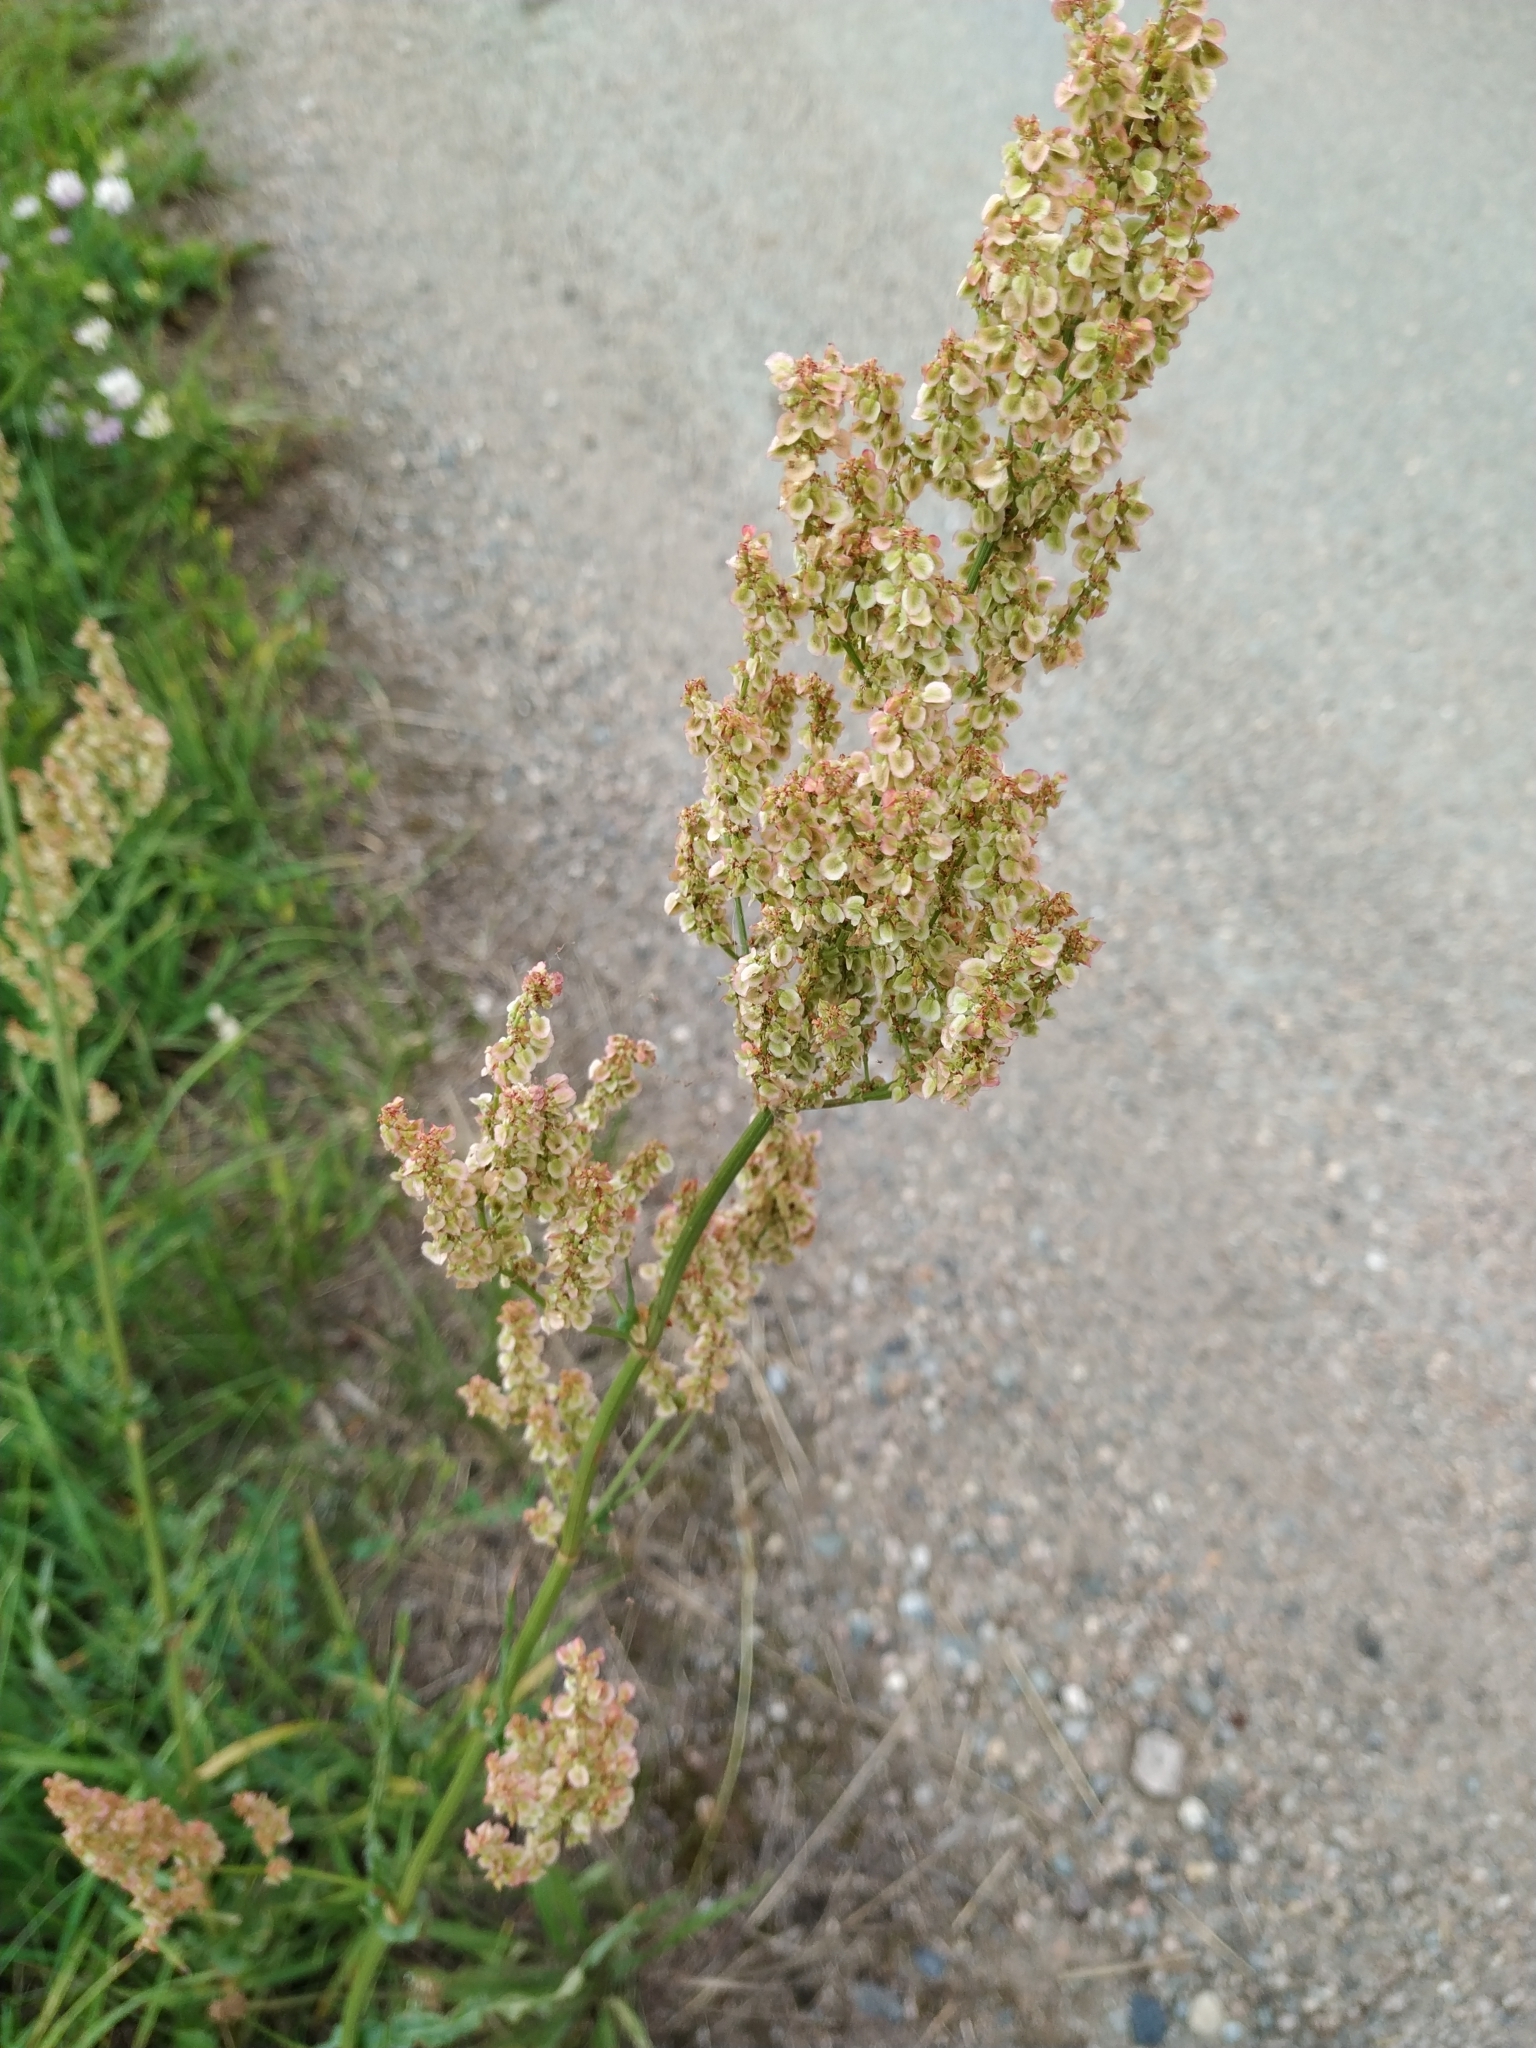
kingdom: Plantae
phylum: Tracheophyta
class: Magnoliopsida
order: Caryophyllales
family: Polygonaceae
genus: Rumex
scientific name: Rumex thyrsiflorus
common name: Garden sorrel
